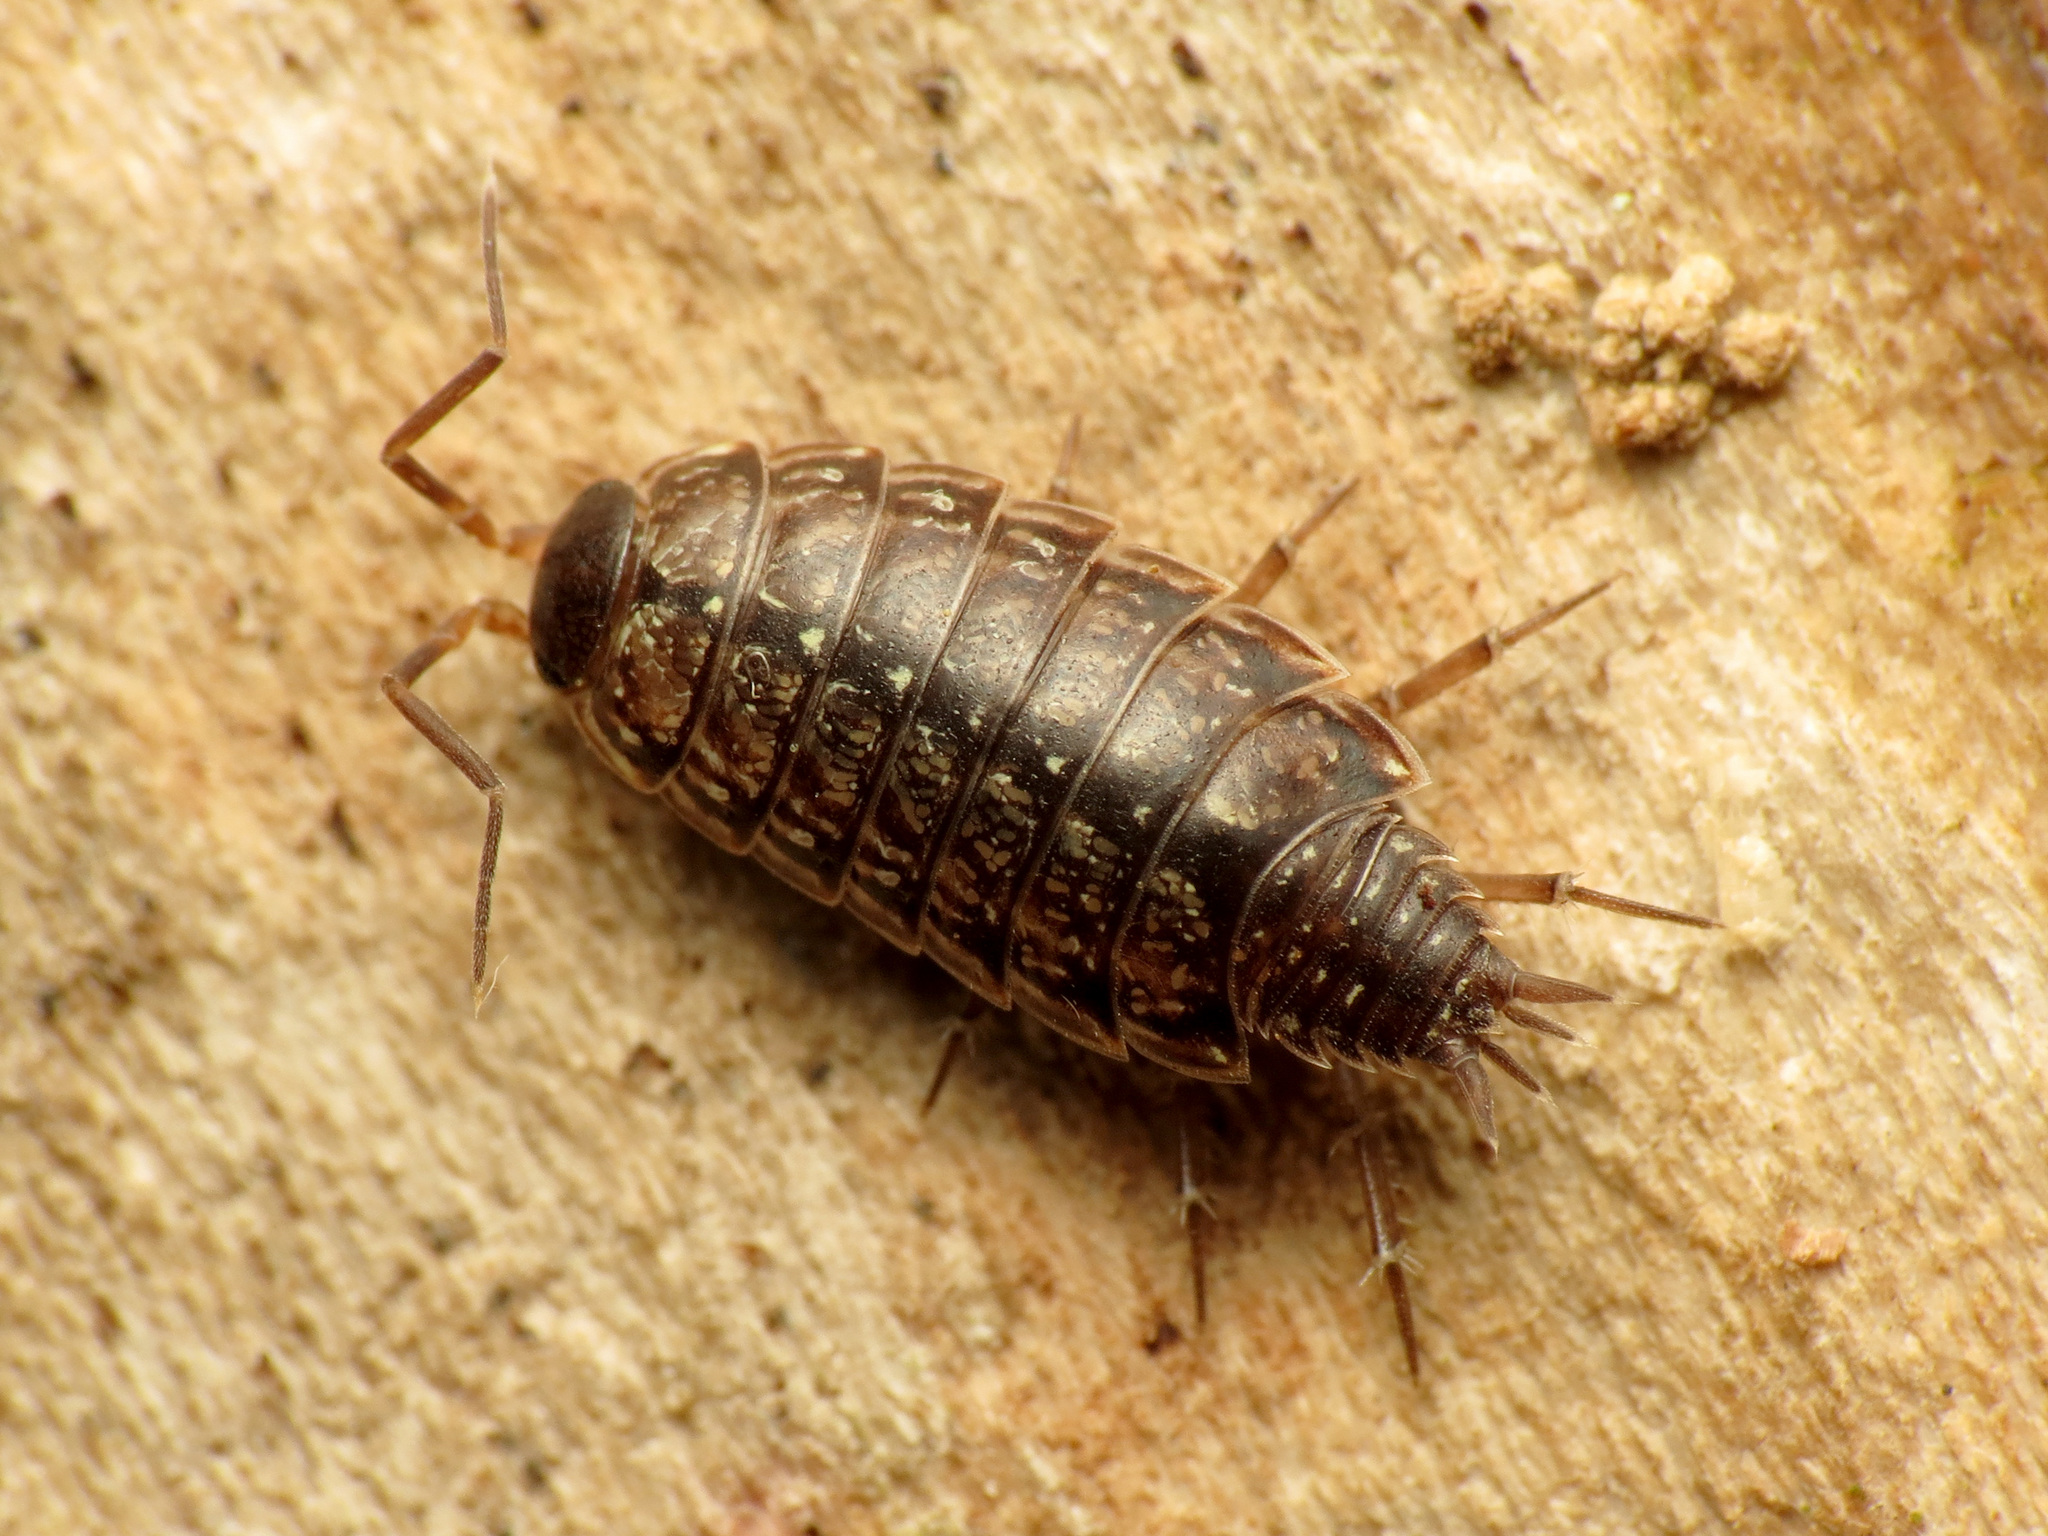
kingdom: Animalia
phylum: Arthropoda
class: Malacostraca
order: Isopoda
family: Philosciidae
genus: Philoscia
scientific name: Philoscia muscorum
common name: Common striped woodlouse
